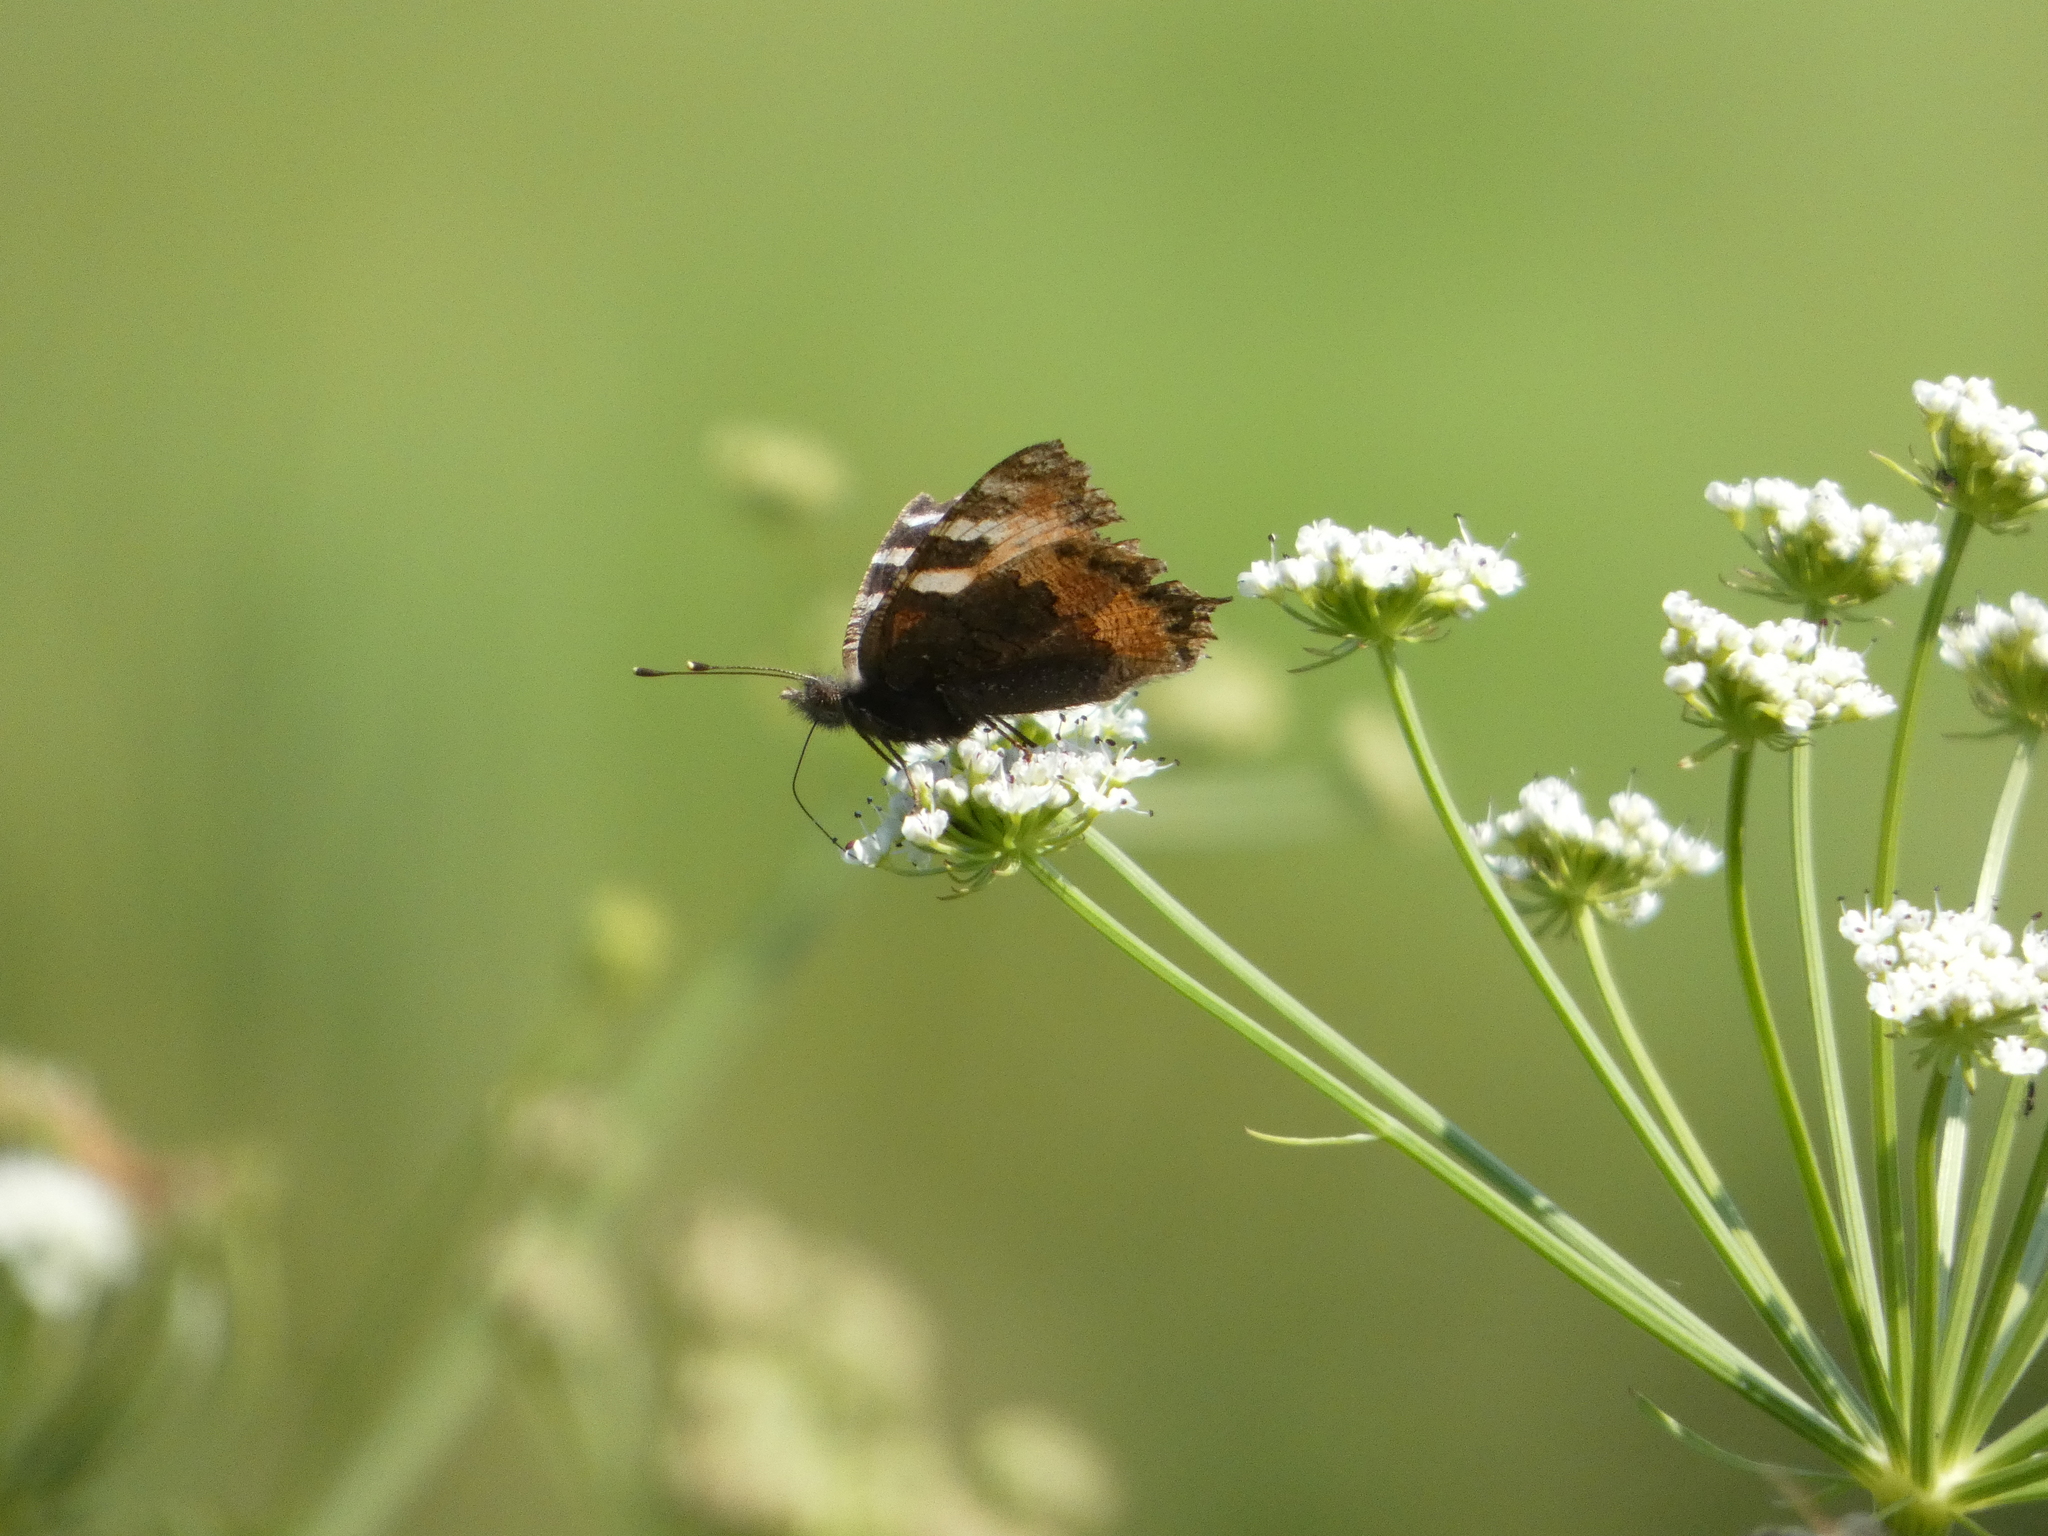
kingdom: Animalia
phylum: Arthropoda
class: Insecta
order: Lepidoptera
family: Nymphalidae
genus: Aglais
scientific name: Aglais urticae
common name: Small tortoiseshell
